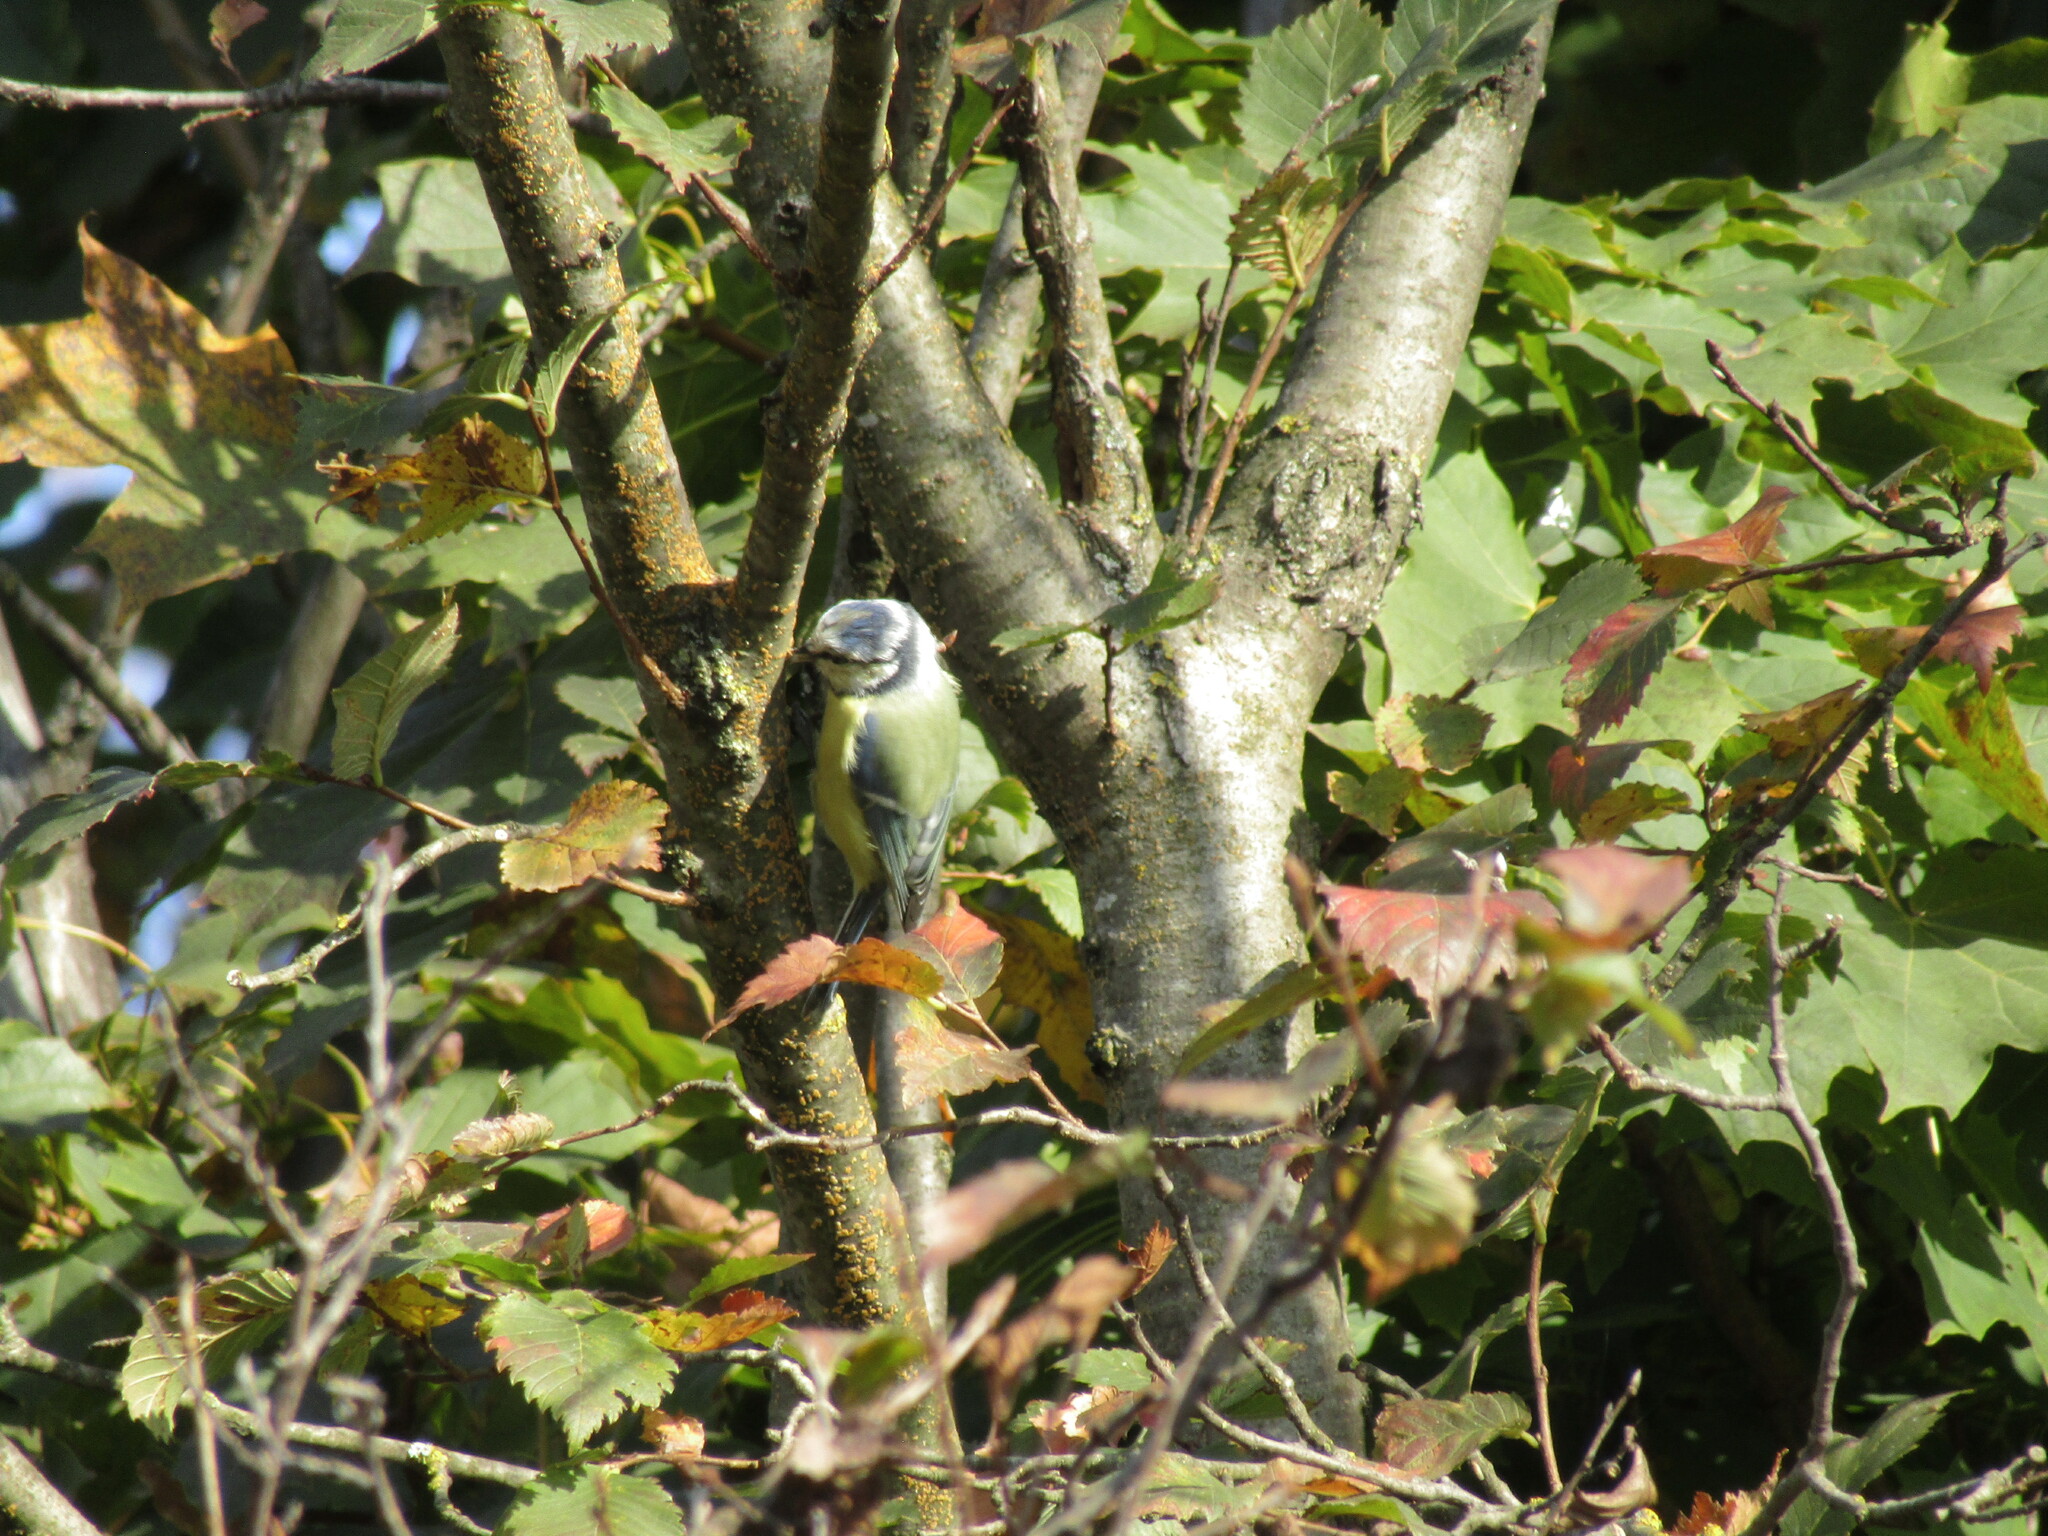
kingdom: Animalia
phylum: Chordata
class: Aves
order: Passeriformes
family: Paridae
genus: Cyanistes
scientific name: Cyanistes caeruleus
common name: Eurasian blue tit
